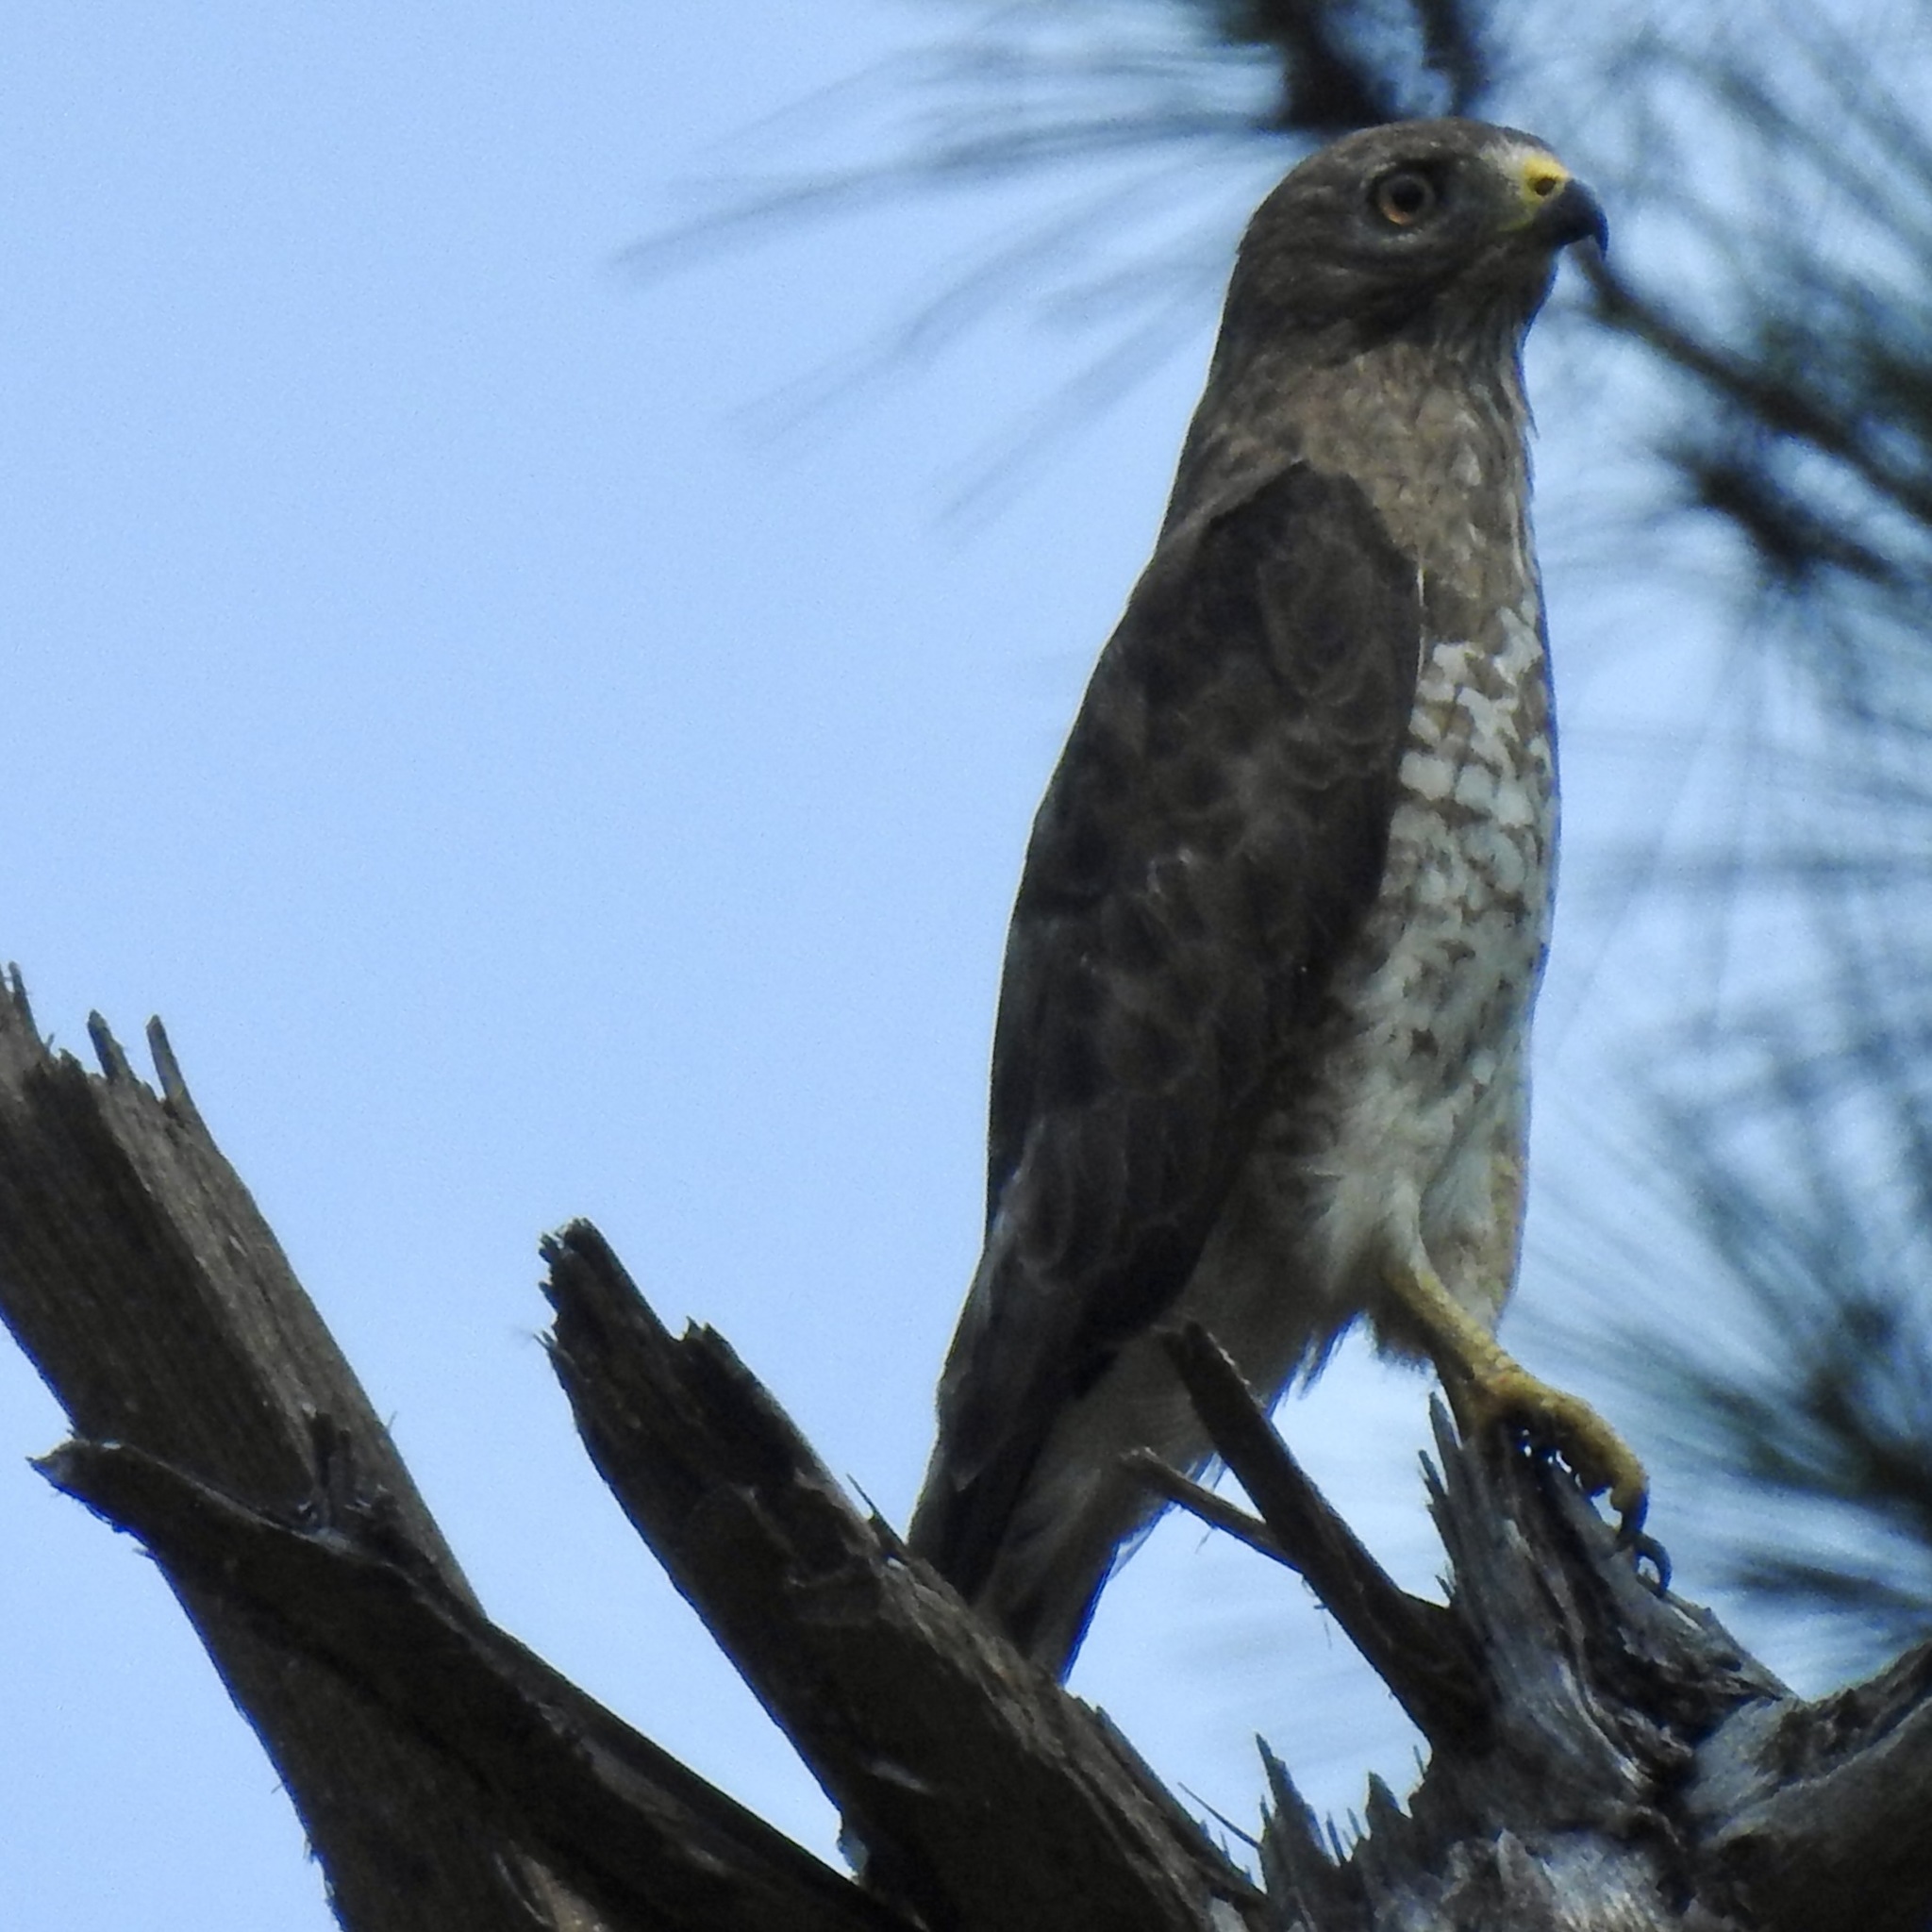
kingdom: Animalia
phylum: Chordata
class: Aves
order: Accipitriformes
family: Accipitridae
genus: Buteo
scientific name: Buteo platypterus
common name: Broad-winged hawk
